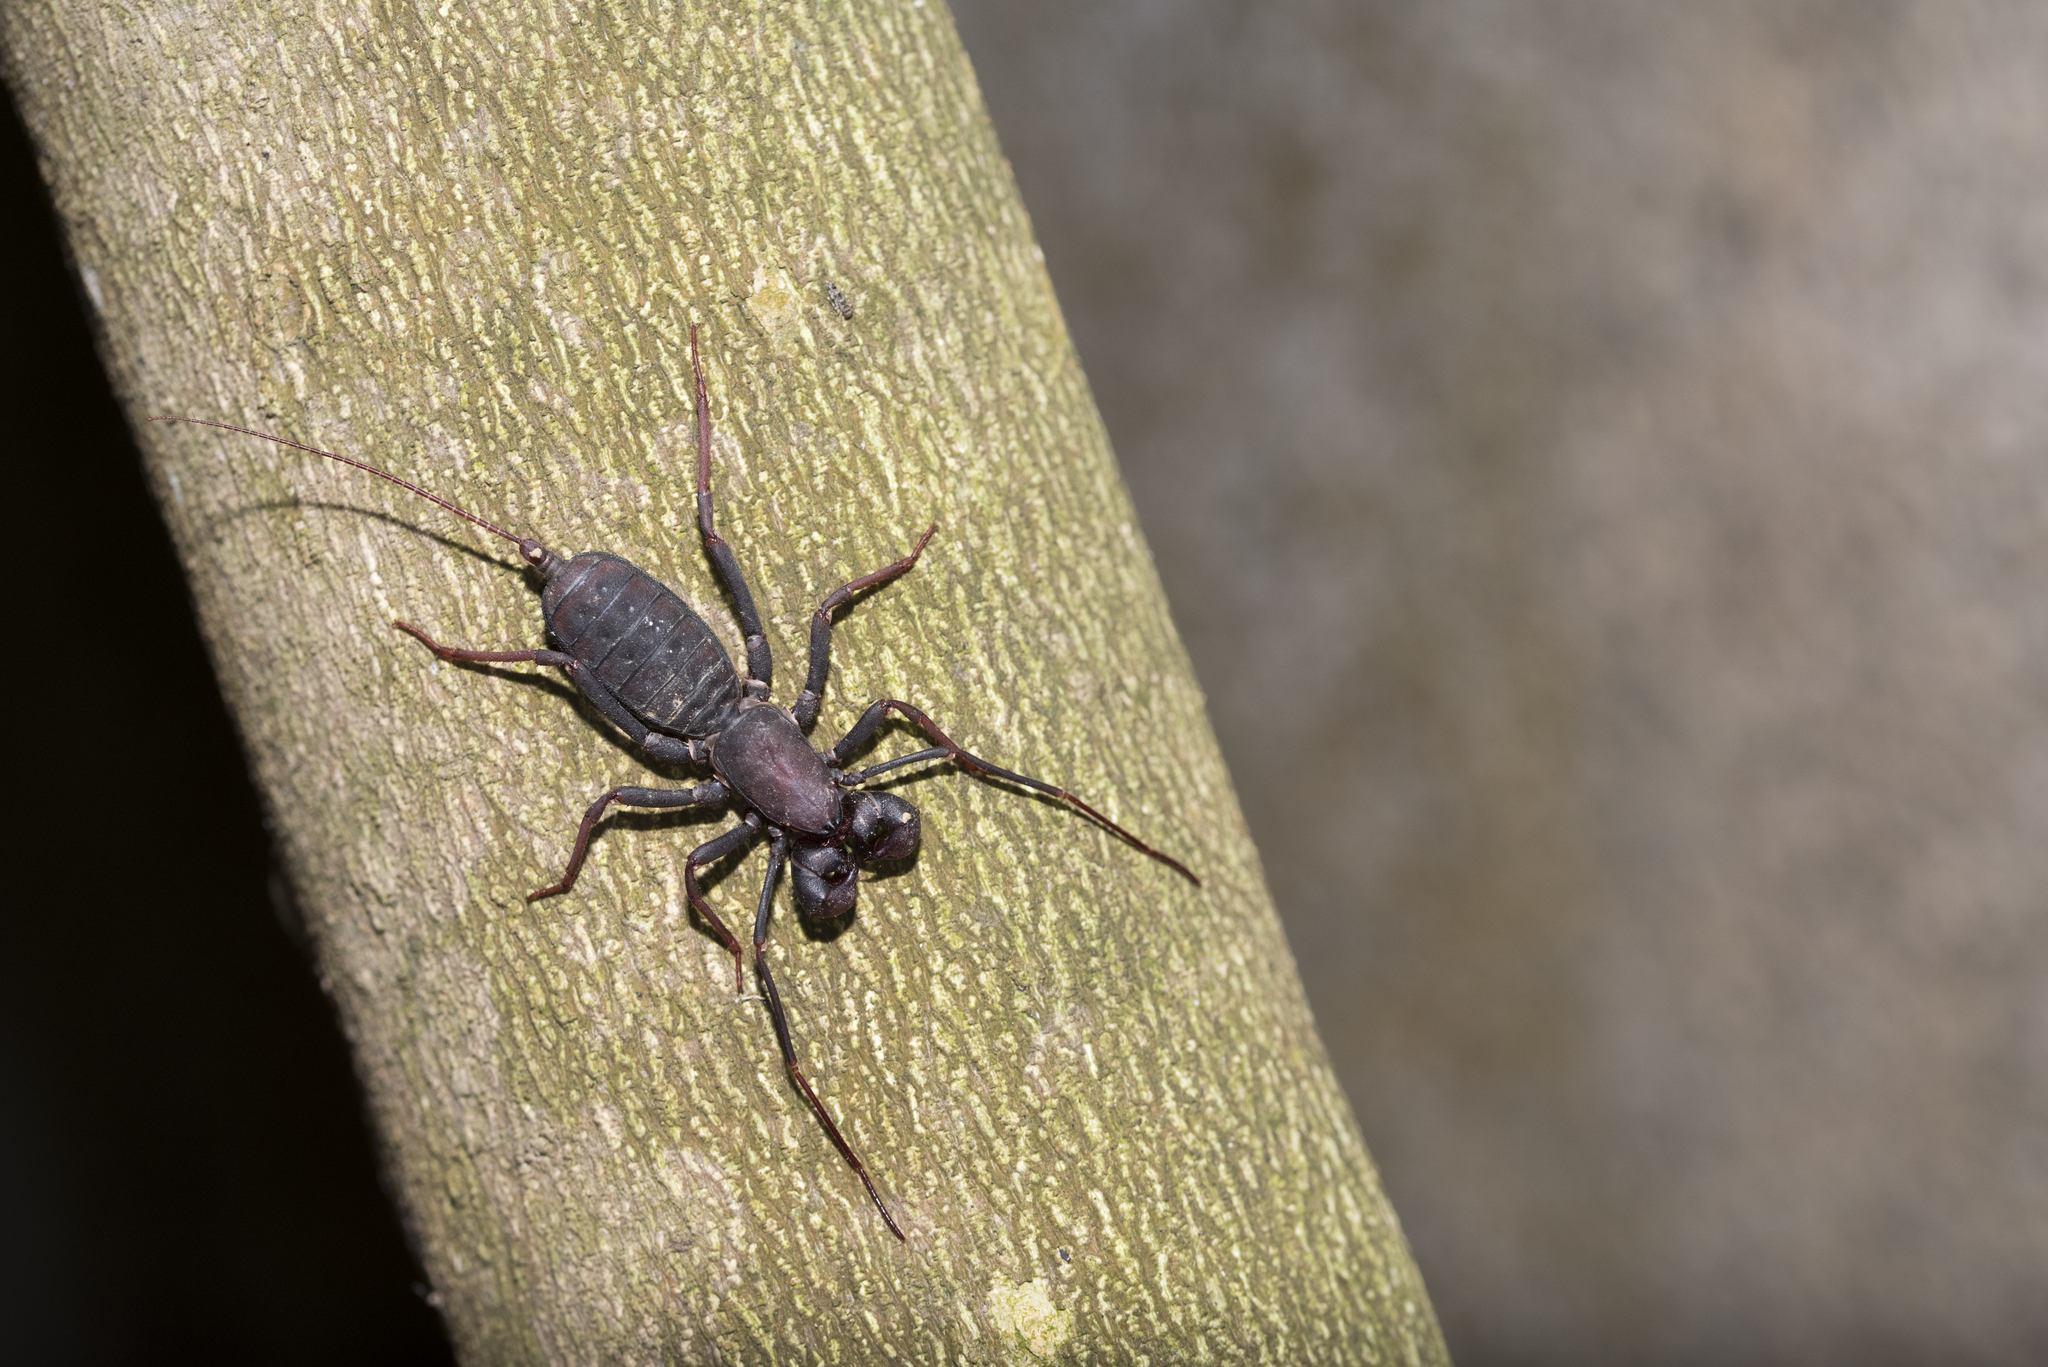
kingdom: Animalia
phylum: Arthropoda
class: Arachnida
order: Uropygi
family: Thelyphonidae
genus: Typopeltis
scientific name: Typopeltis crucifer
